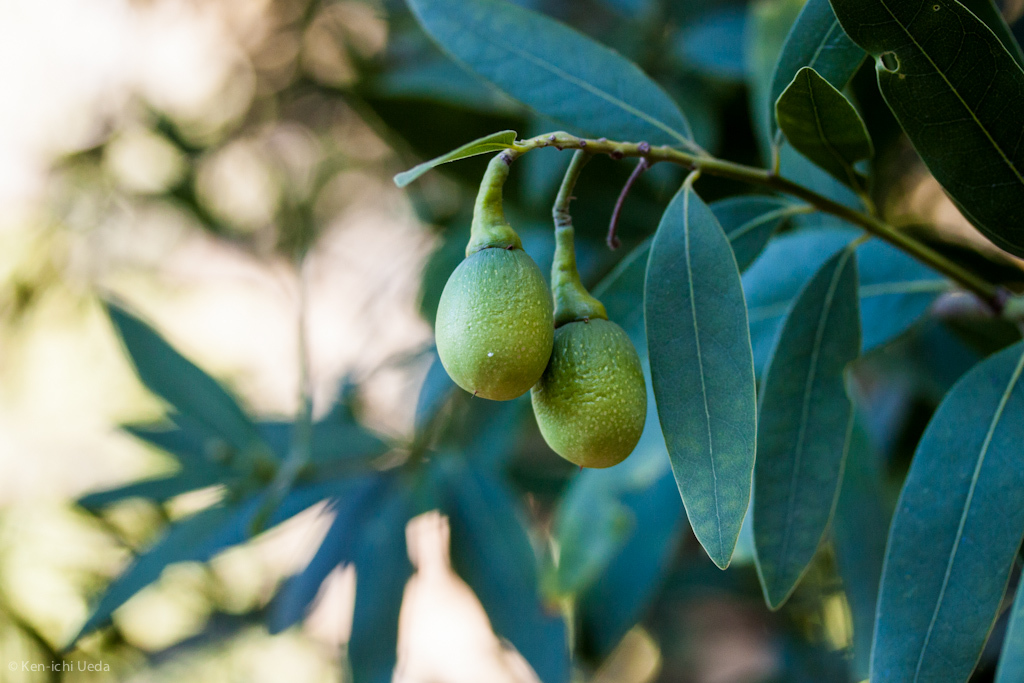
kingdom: Plantae
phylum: Tracheophyta
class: Magnoliopsida
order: Laurales
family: Lauraceae
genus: Umbellularia
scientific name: Umbellularia californica
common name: California bay
